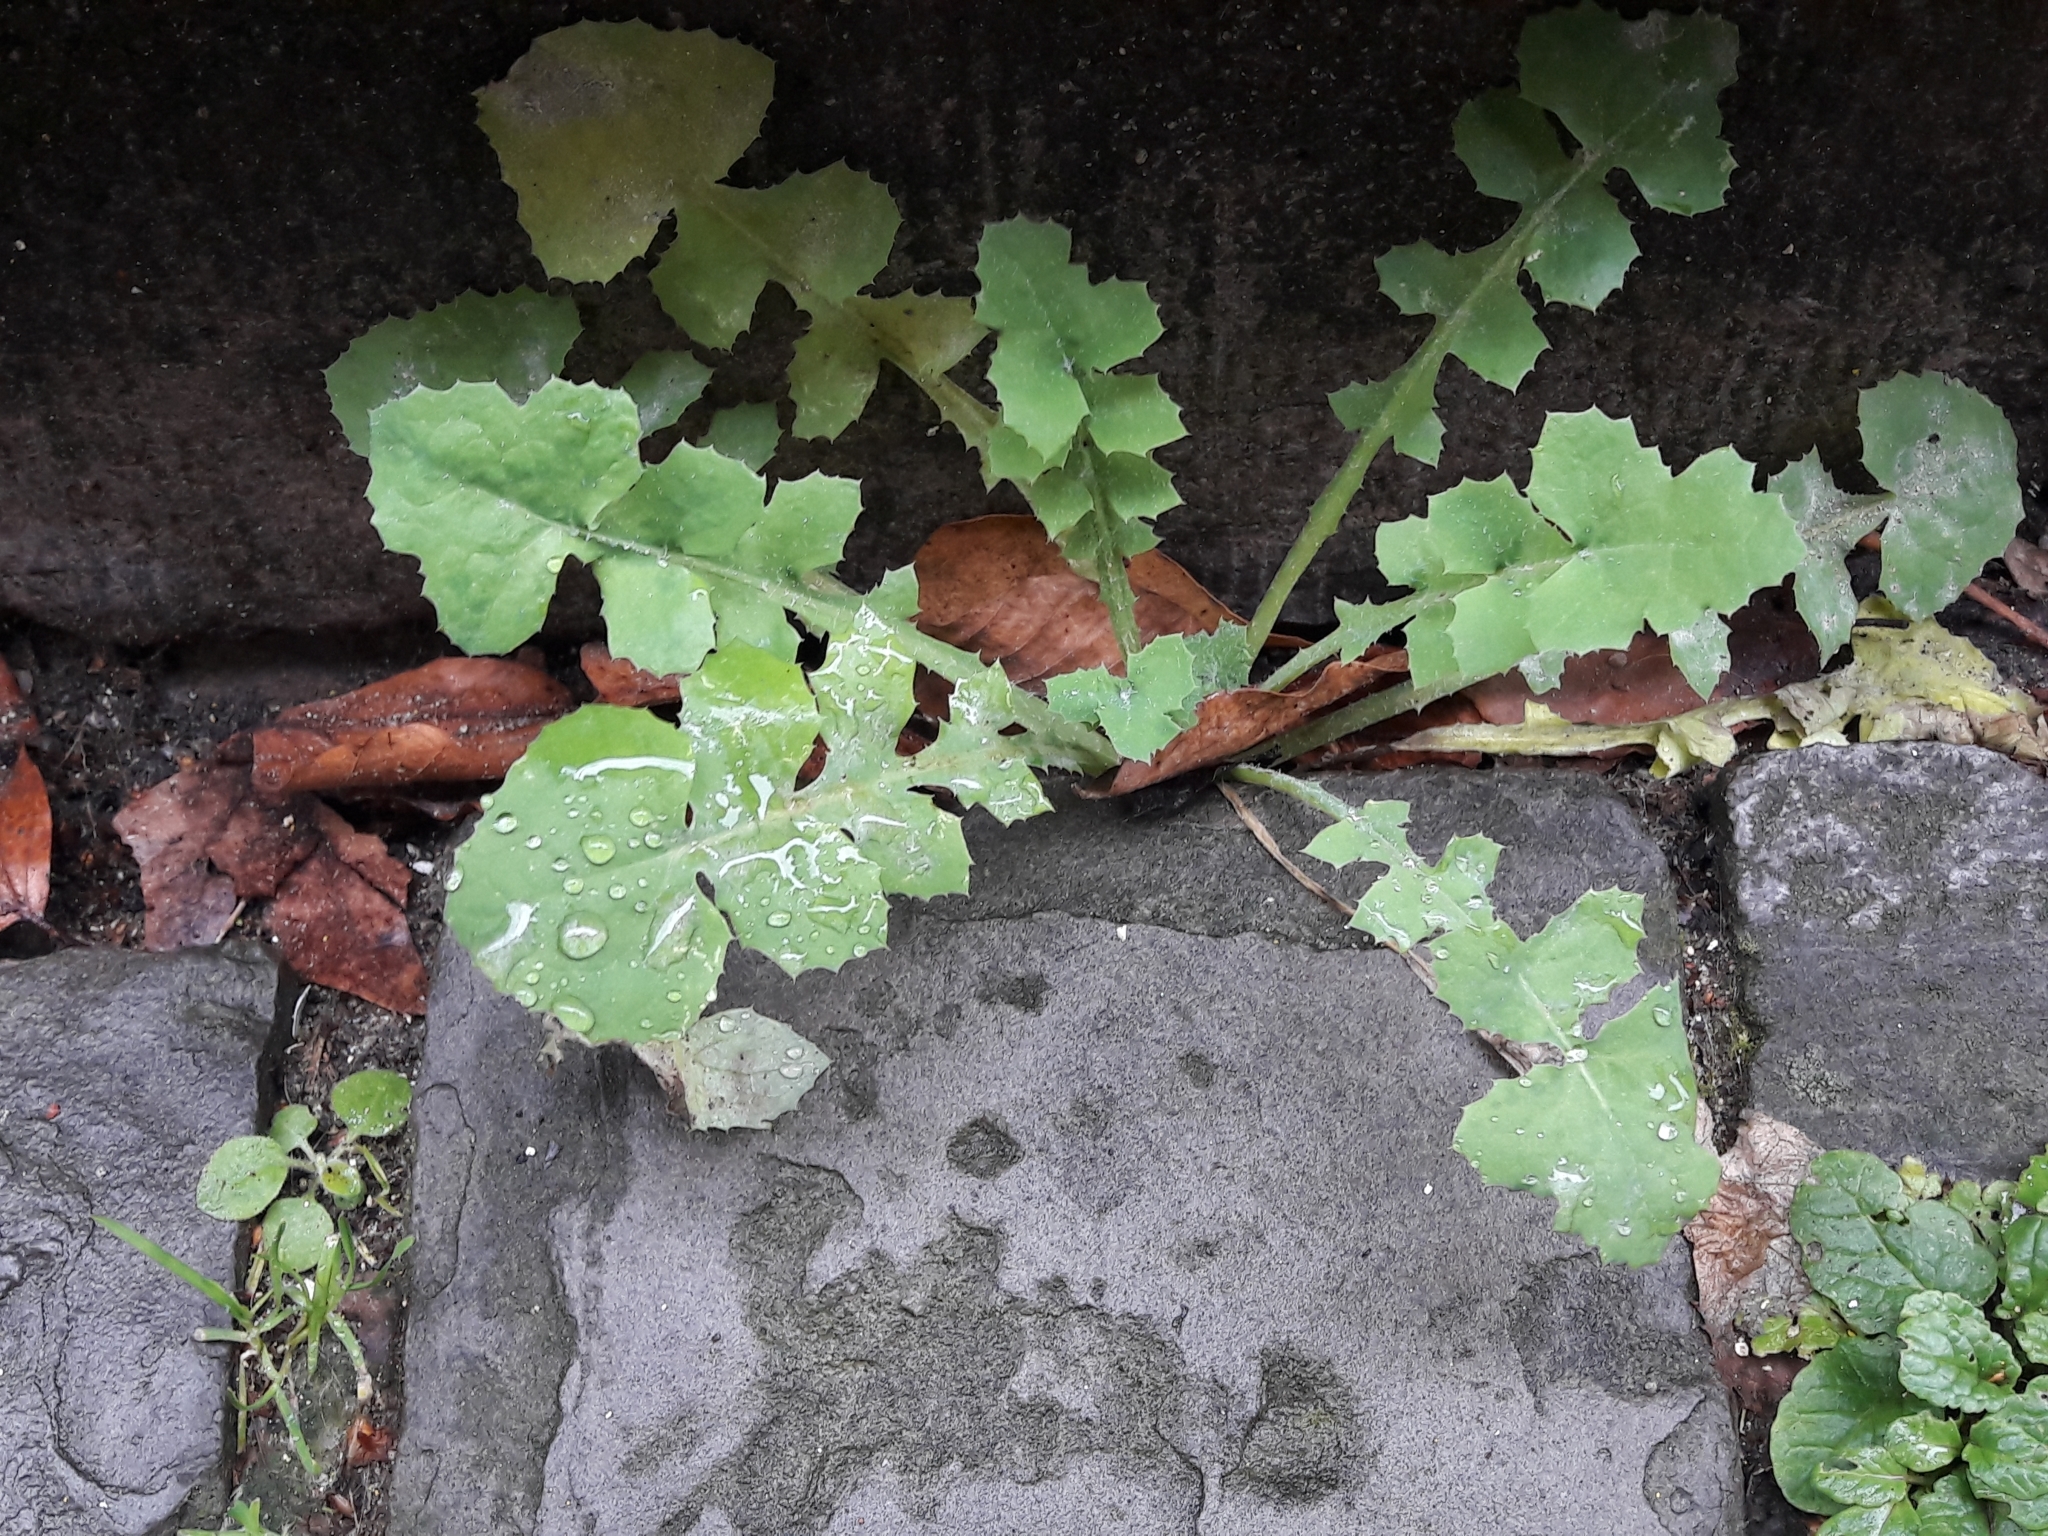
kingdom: Plantae
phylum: Tracheophyta
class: Magnoliopsida
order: Asterales
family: Asteraceae
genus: Sonchus
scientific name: Sonchus oleraceus
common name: Common sowthistle
